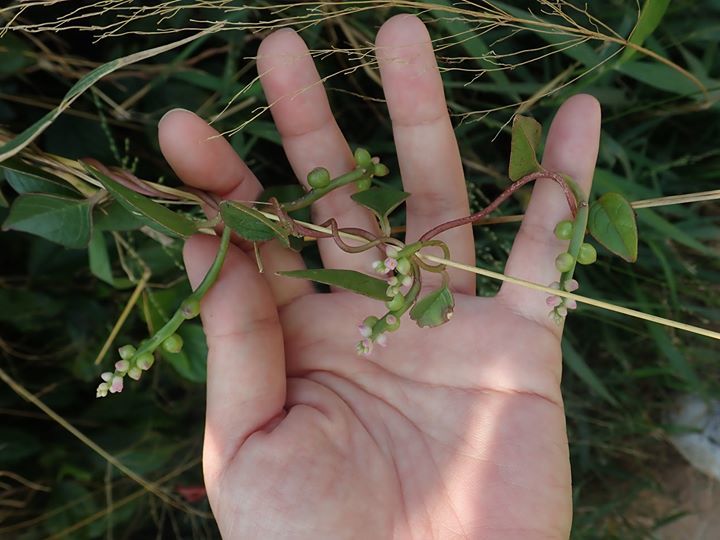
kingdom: Plantae
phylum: Tracheophyta
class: Magnoliopsida
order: Caryophyllales
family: Basellaceae
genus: Basella
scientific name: Basella alba
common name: Indian spinach
